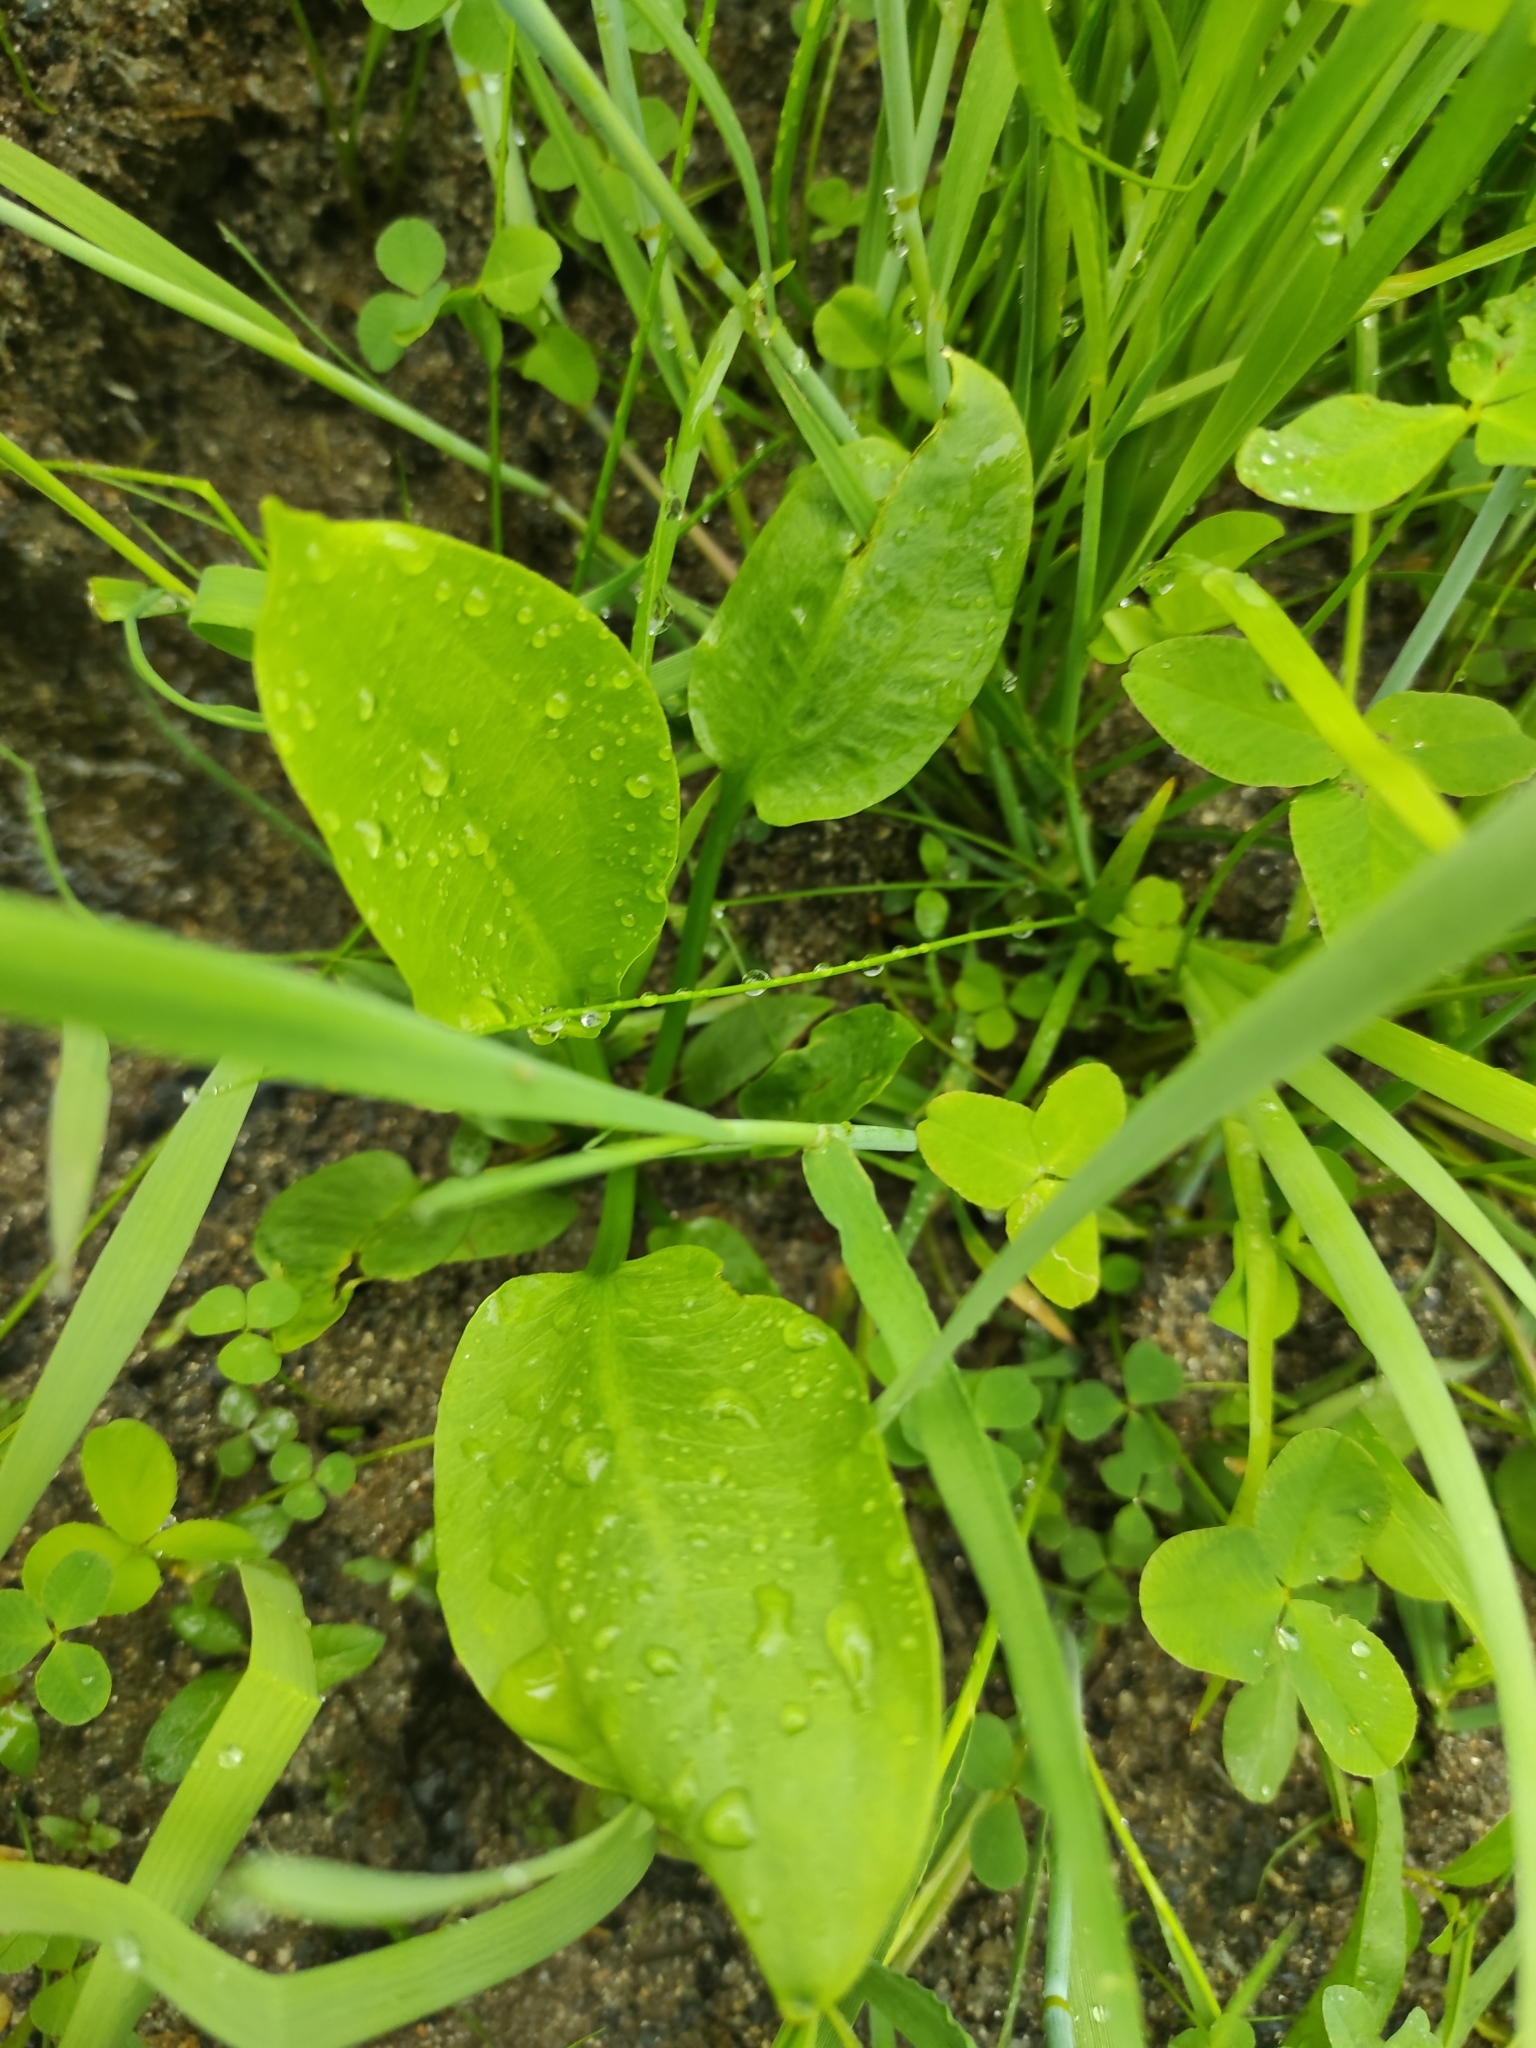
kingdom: Plantae
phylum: Tracheophyta
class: Liliopsida
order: Alismatales
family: Alismataceae
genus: Alisma
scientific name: Alisma plantago-aquatica
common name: Water-plantain
